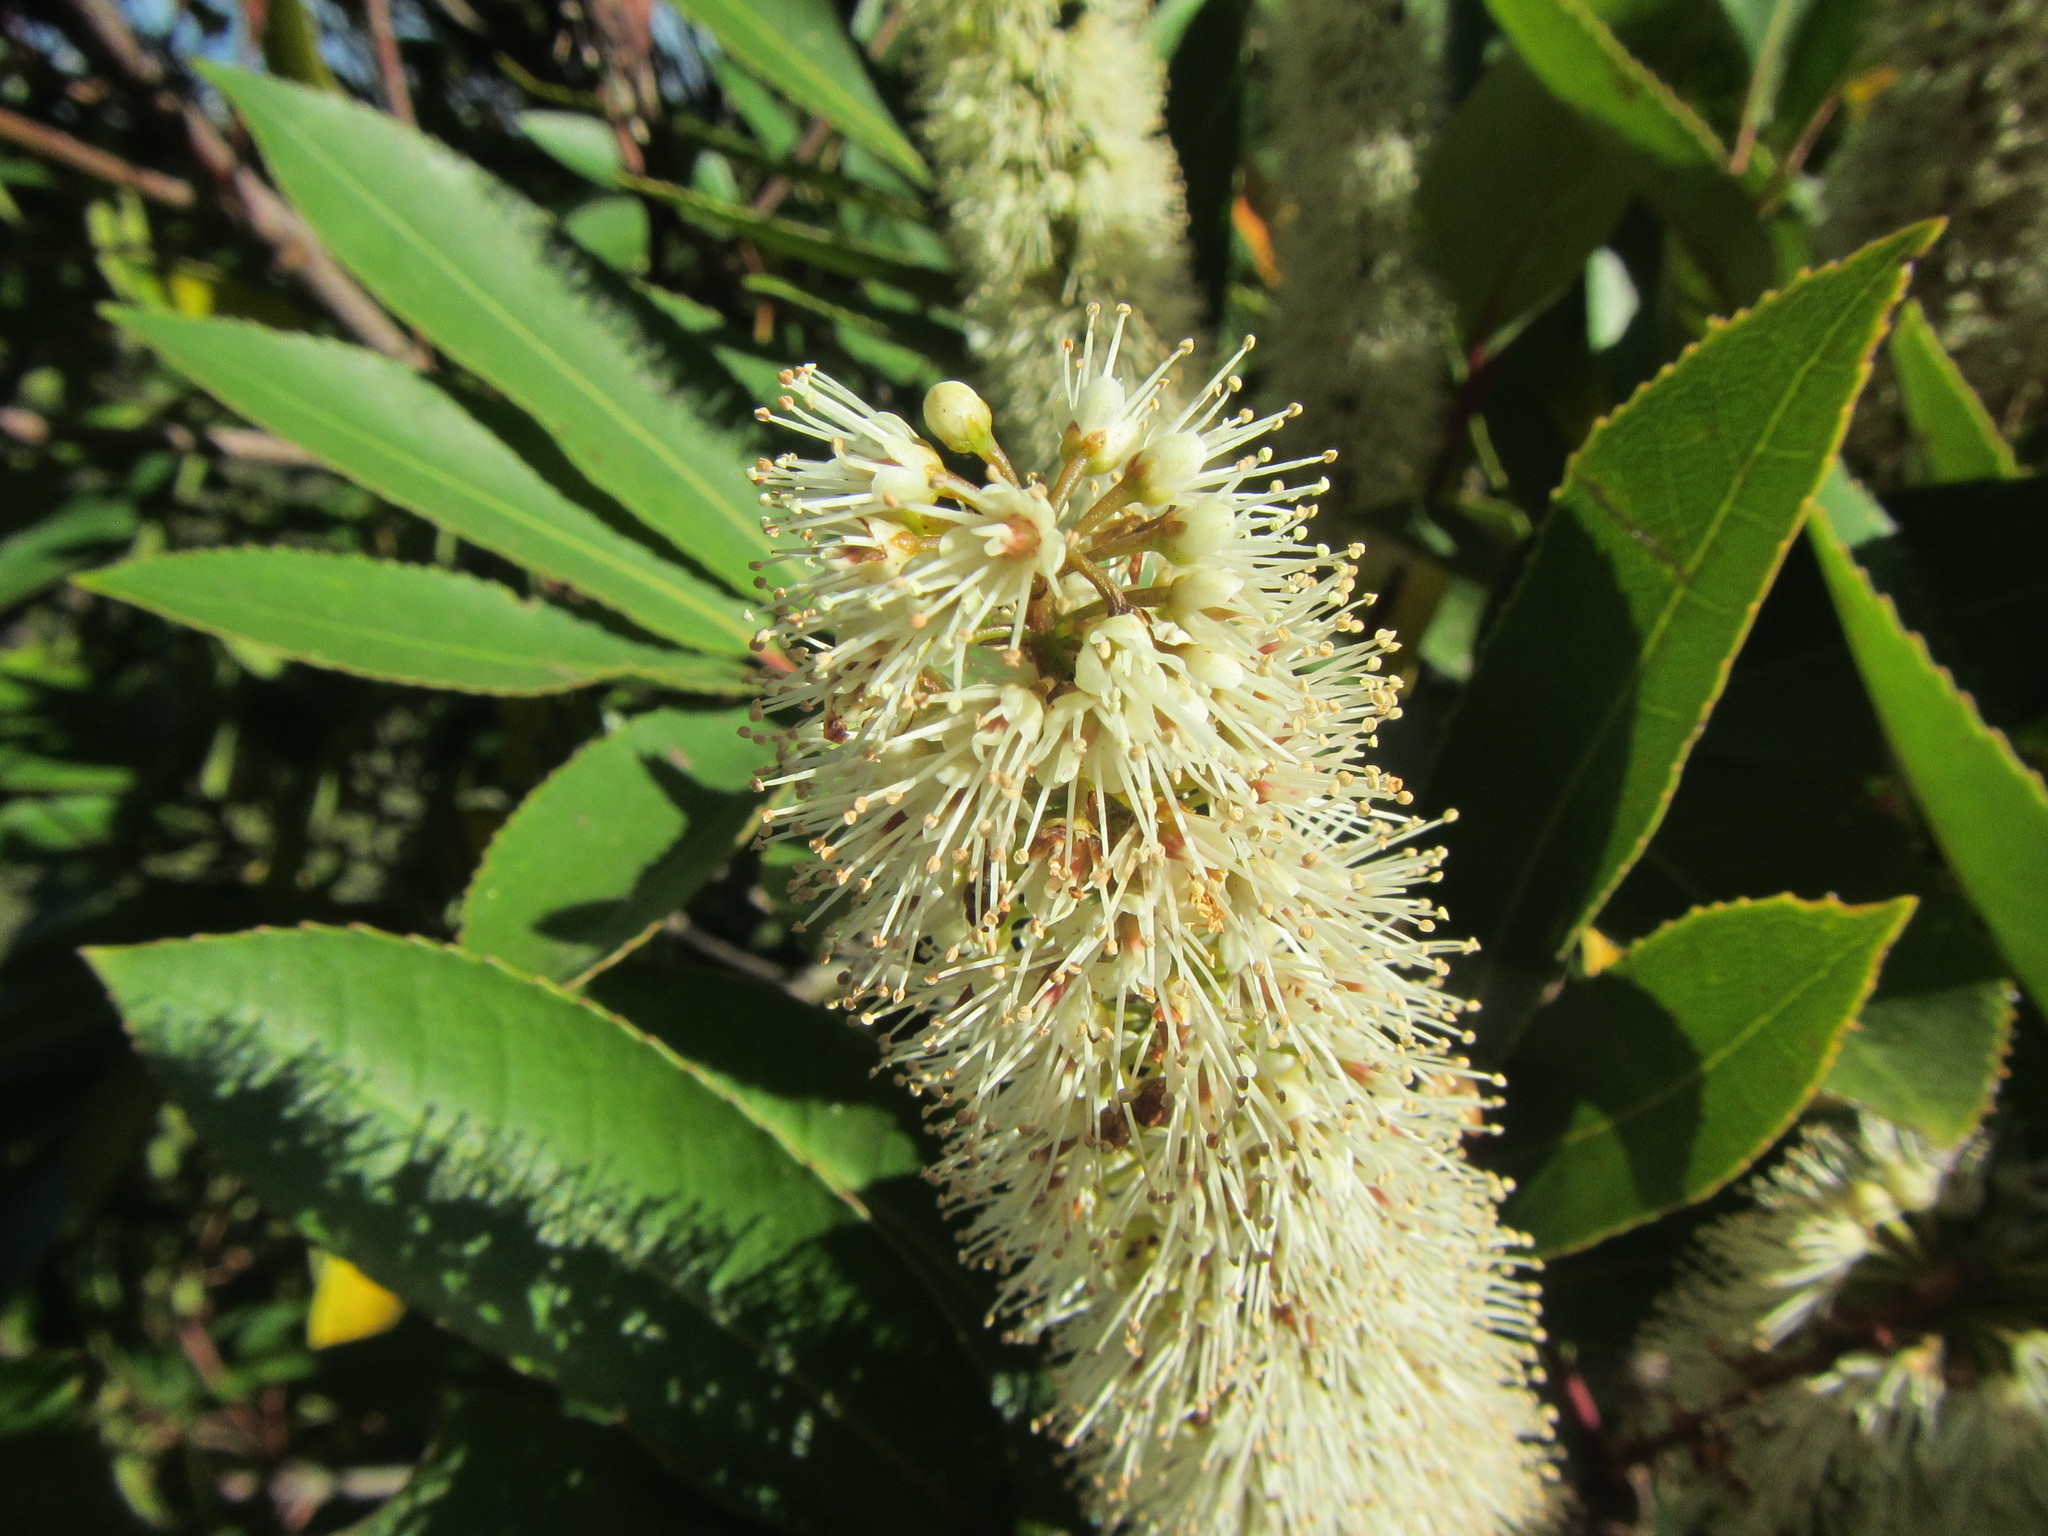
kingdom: Plantae
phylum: Tracheophyta
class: Magnoliopsida
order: Oxalidales
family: Cunoniaceae
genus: Cunonia
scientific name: Cunonia capensis
